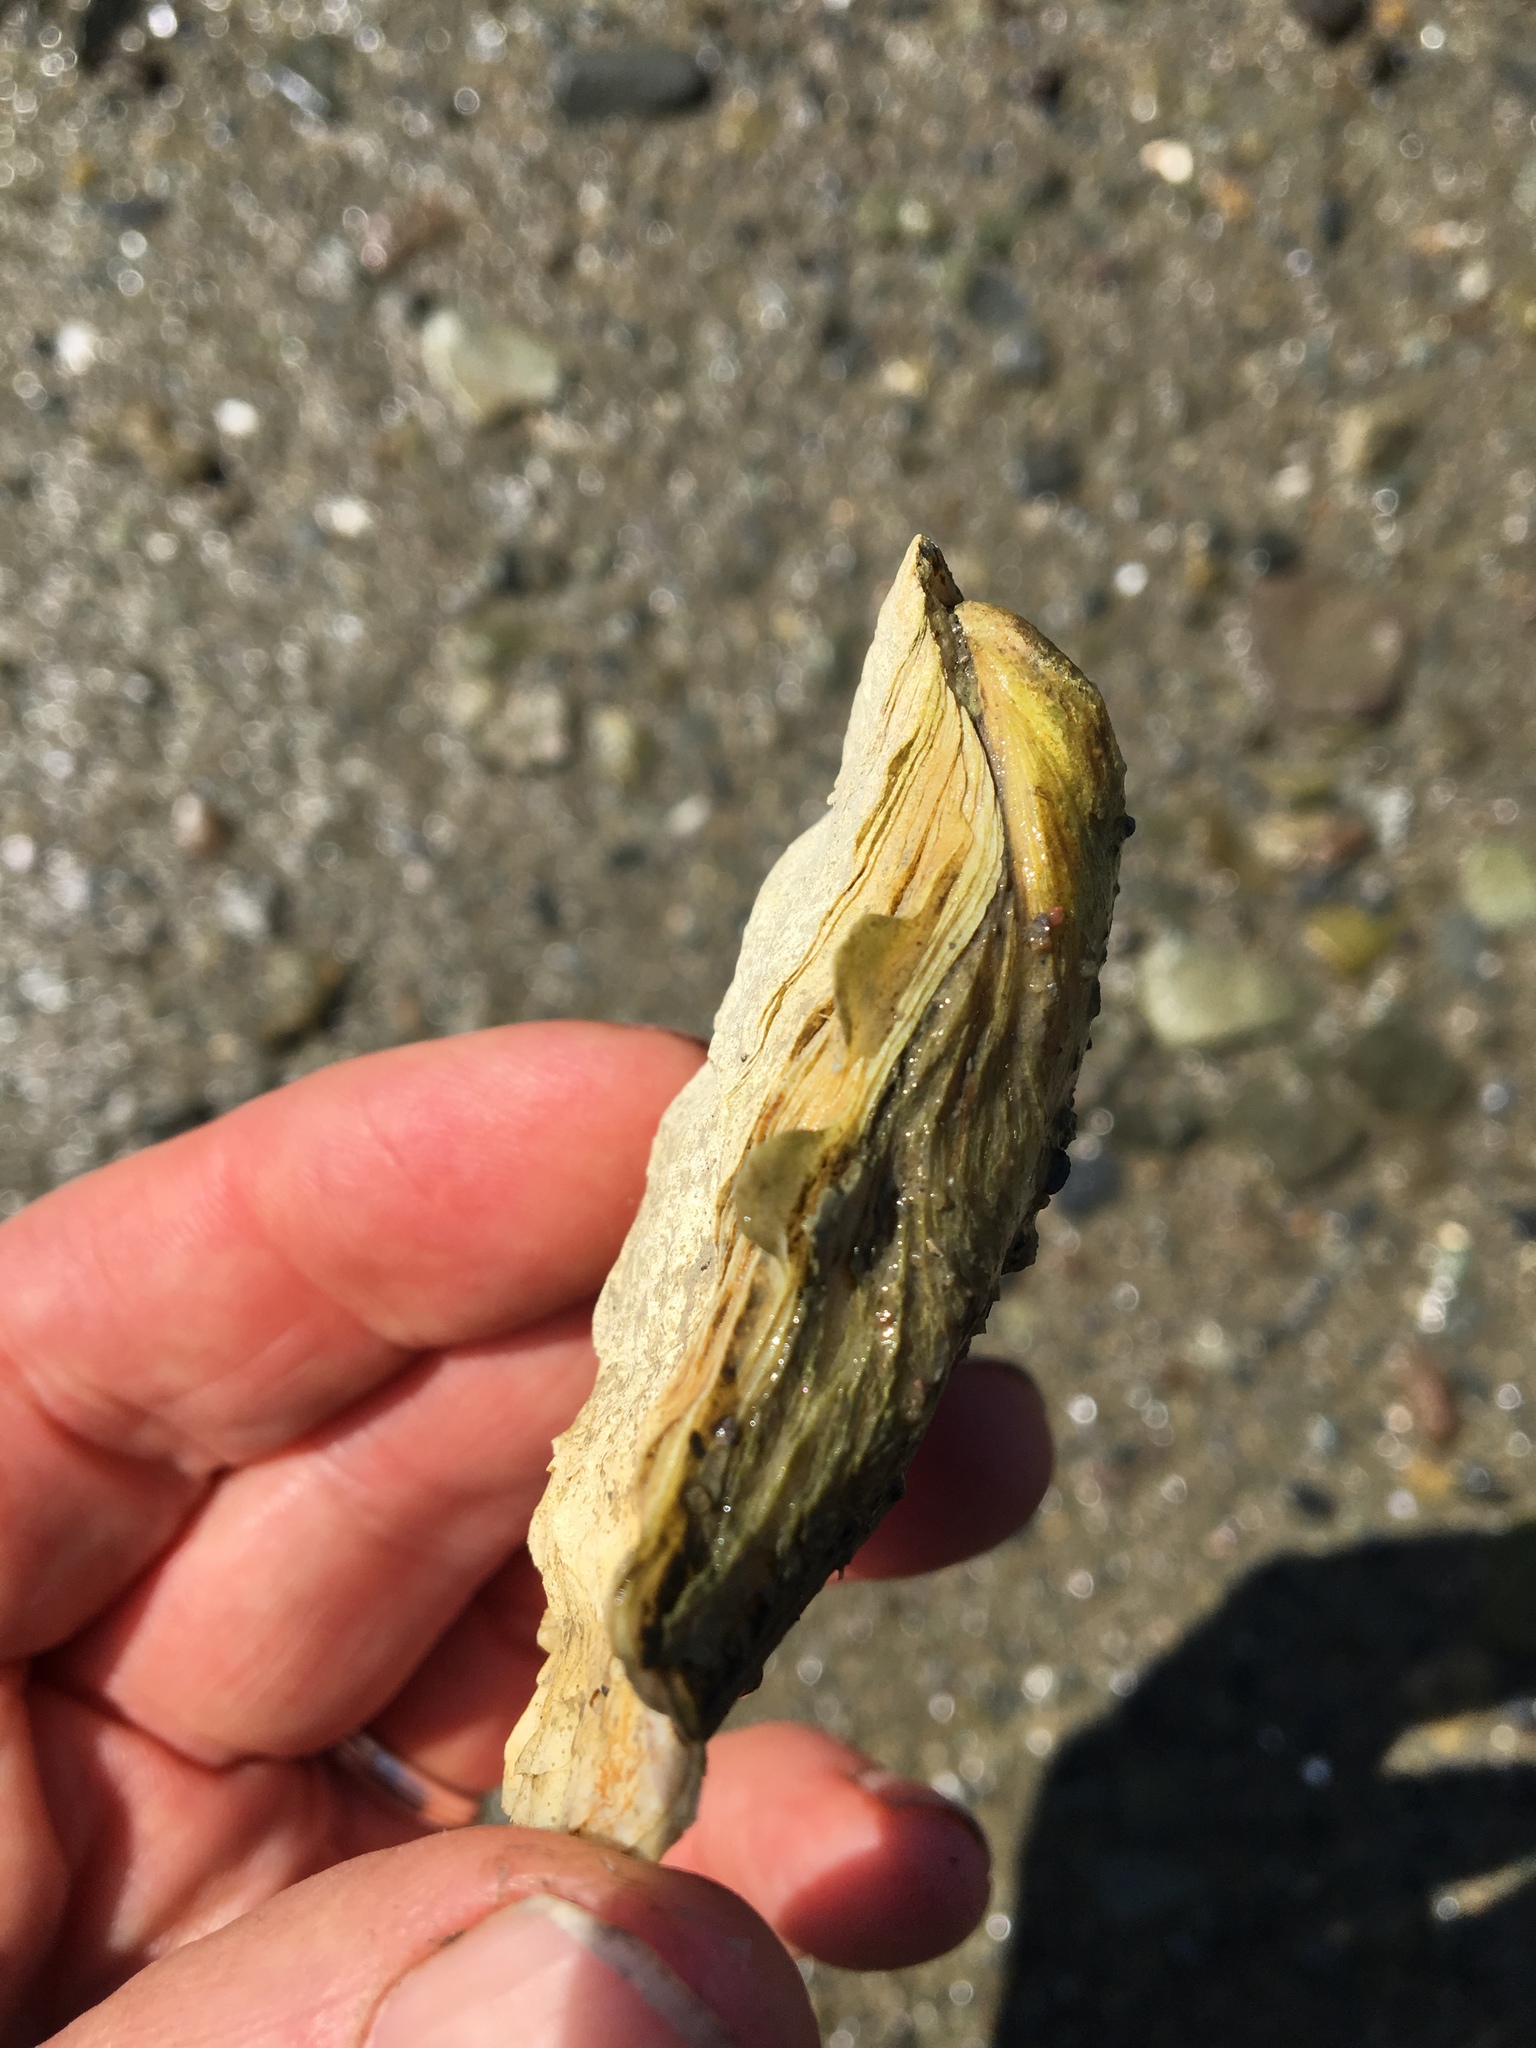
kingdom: Animalia
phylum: Mollusca
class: Bivalvia
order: Ostreida
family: Ostreidae
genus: Crassostrea
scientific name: Crassostrea virginica
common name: American oyster
